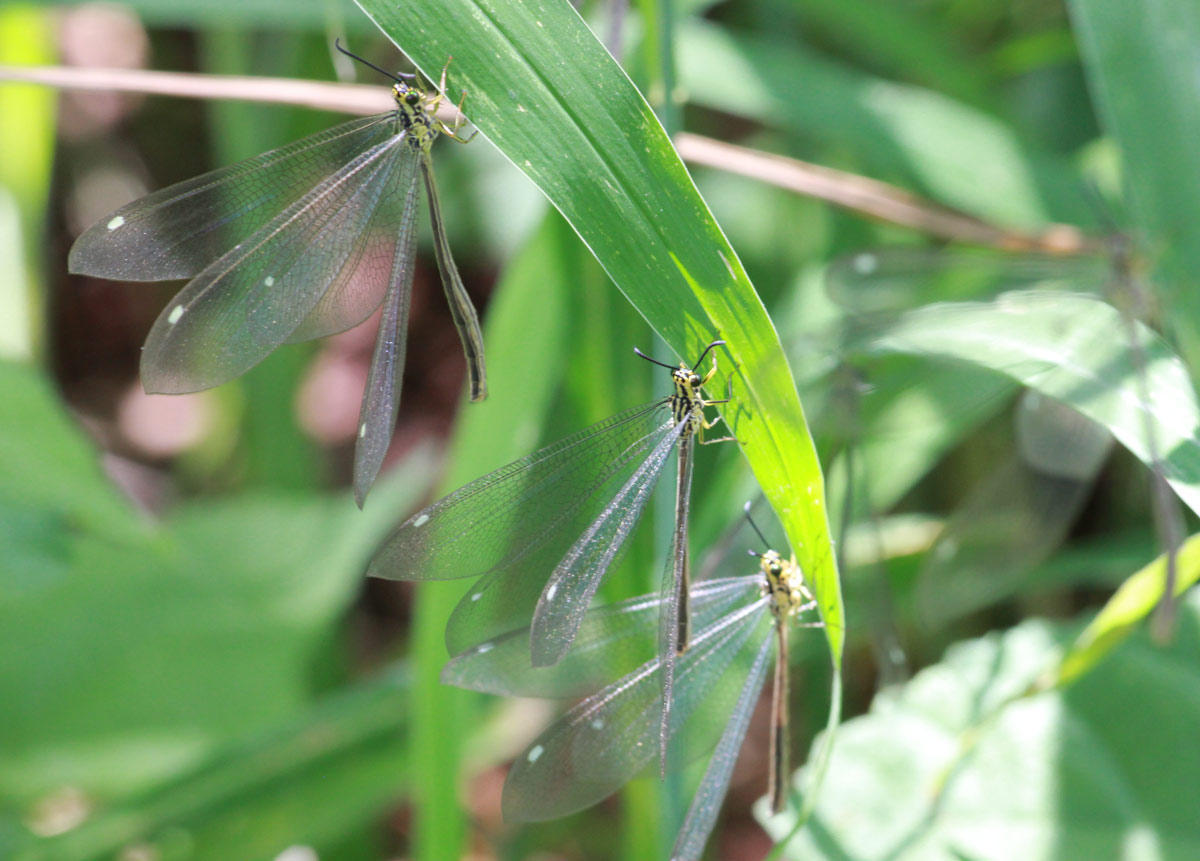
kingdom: Animalia
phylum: Arthropoda
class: Insecta
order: Neuroptera
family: Myrmeleontidae
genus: Hagenomyia
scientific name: Hagenomyia tristis
